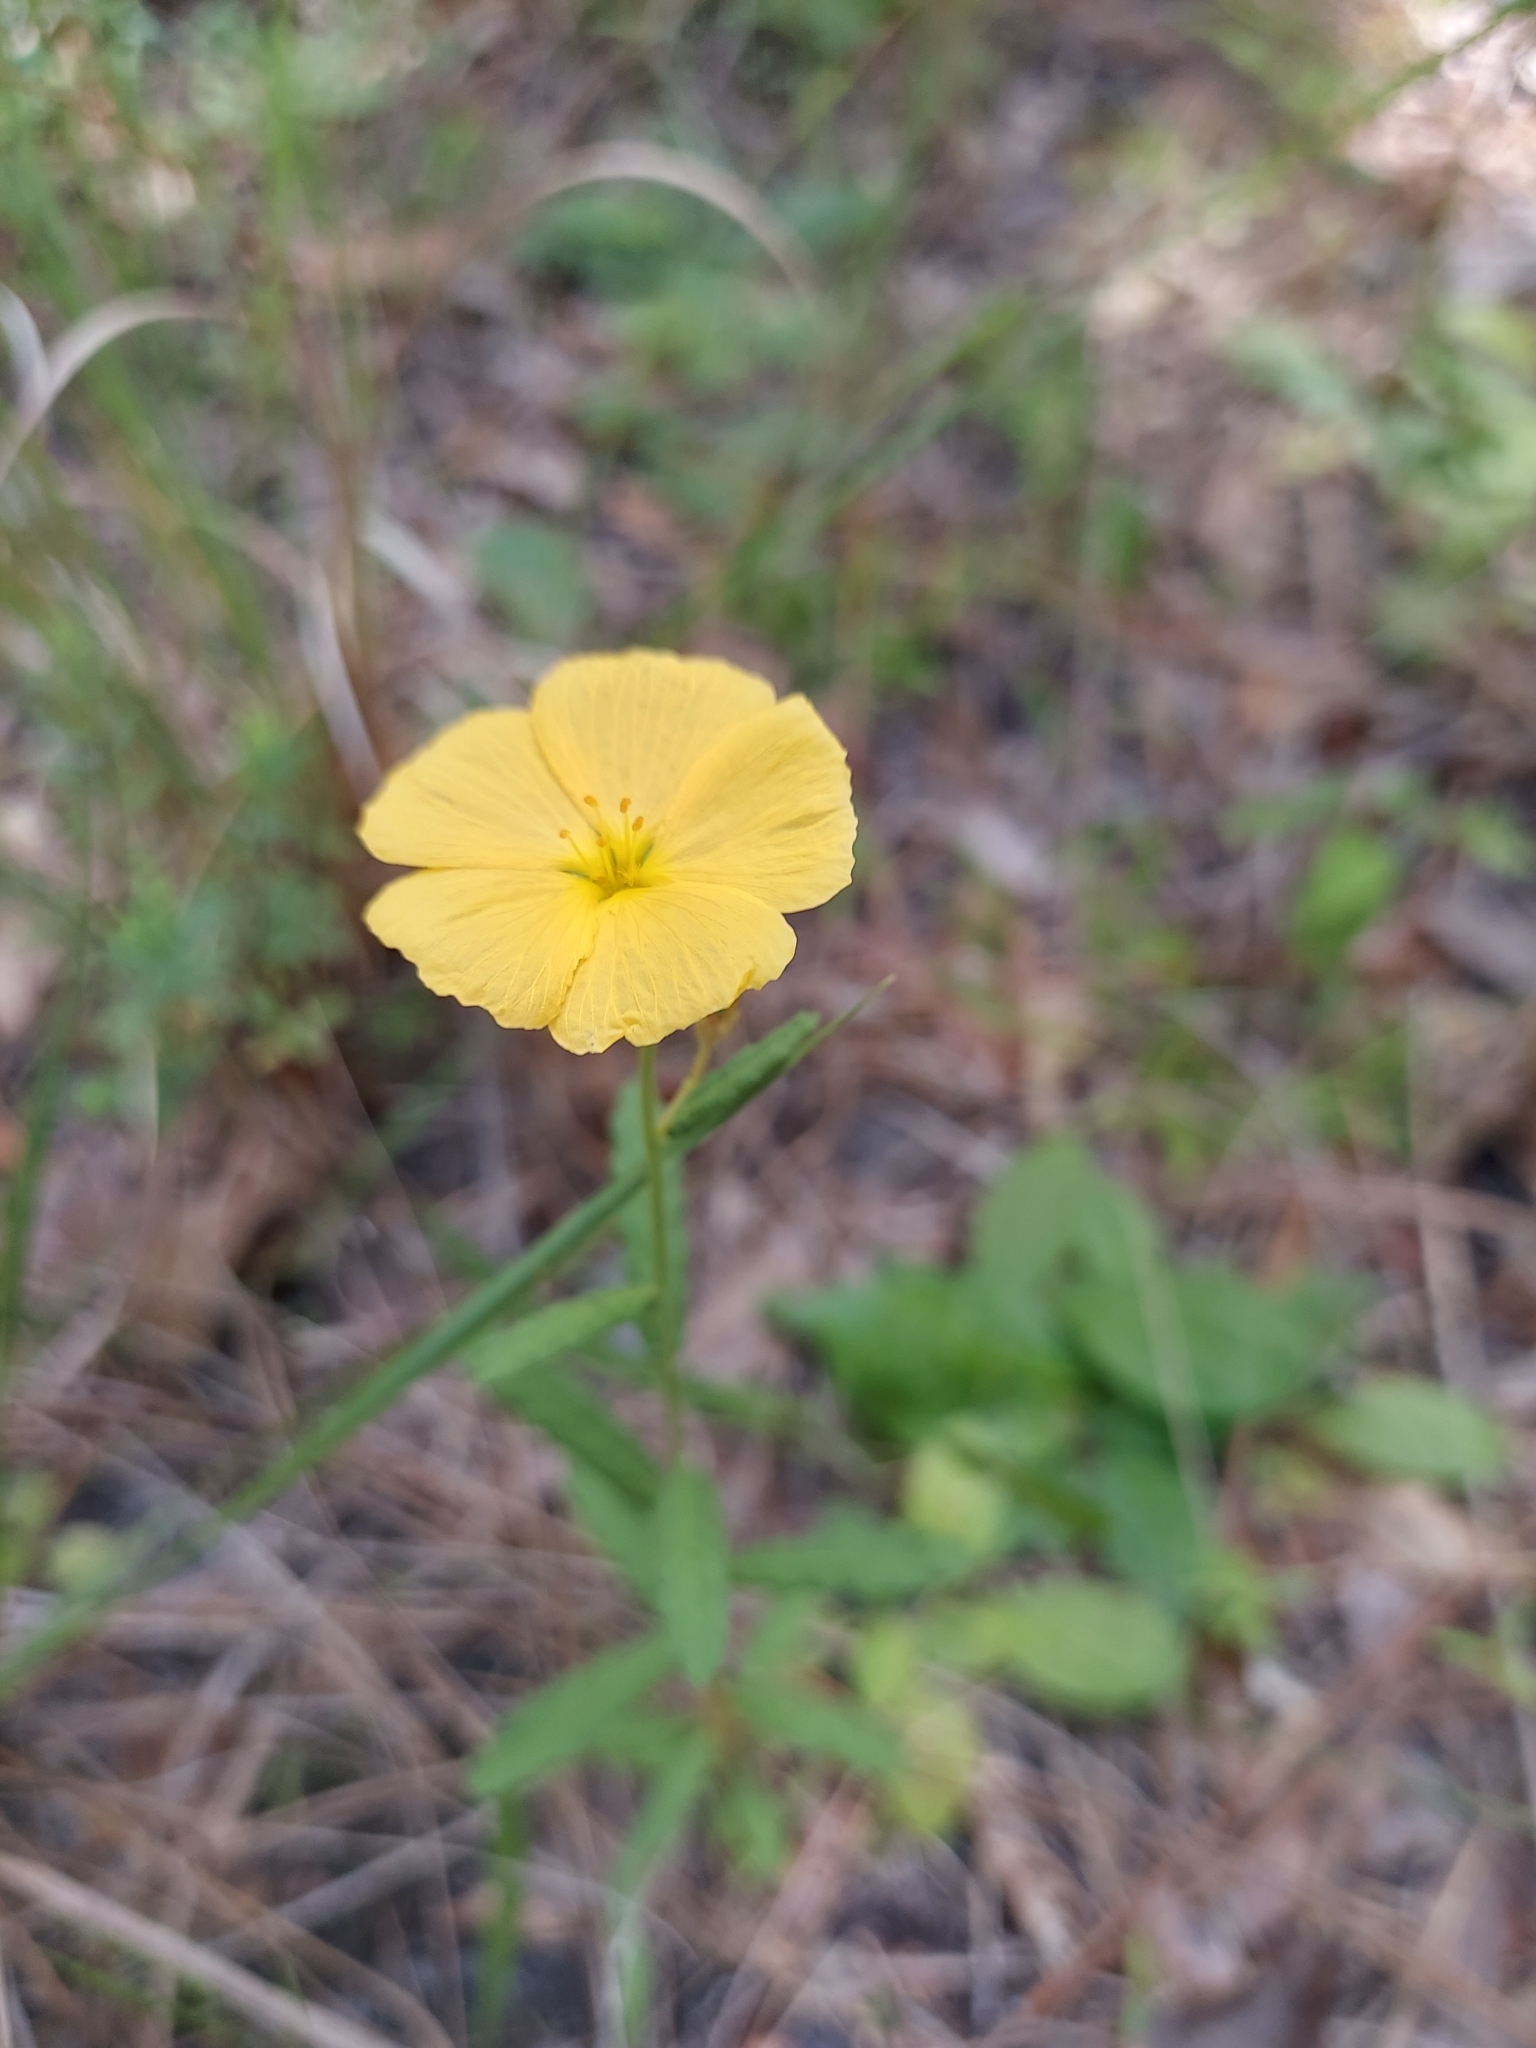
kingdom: Plantae
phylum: Tracheophyta
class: Magnoliopsida
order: Malpighiales
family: Turneraceae
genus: Piriqueta
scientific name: Piriqueta cistoides
